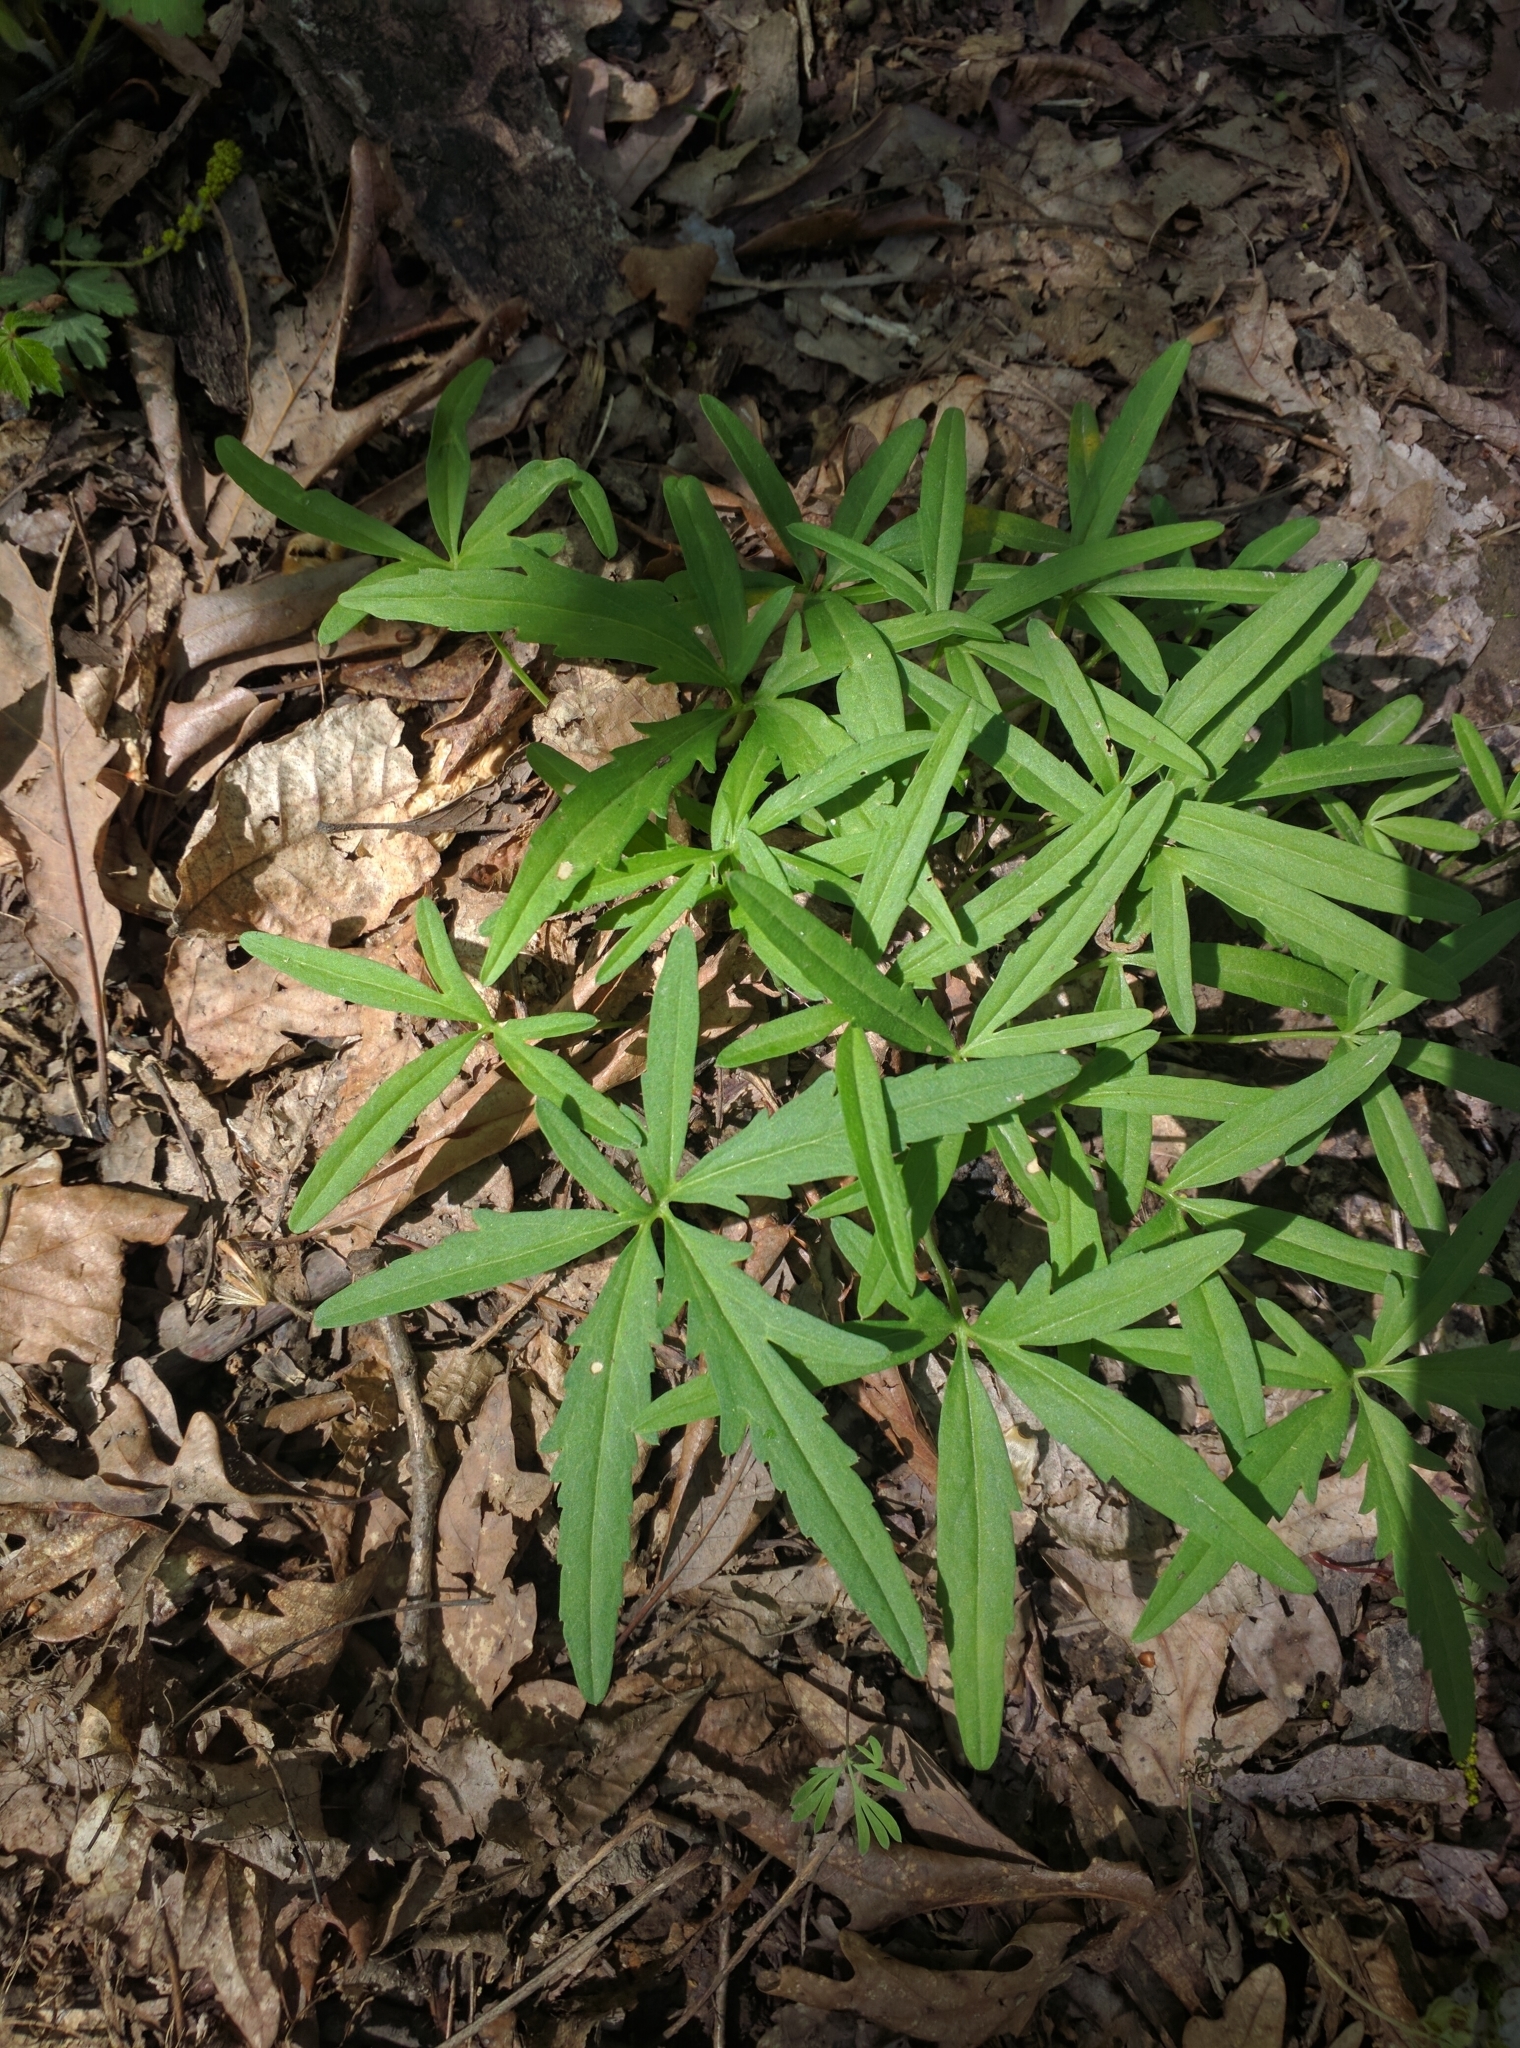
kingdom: Plantae
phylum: Tracheophyta
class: Magnoliopsida
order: Brassicales
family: Brassicaceae
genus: Cardamine
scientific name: Cardamine concatenata
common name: Cut-leaf toothcup
